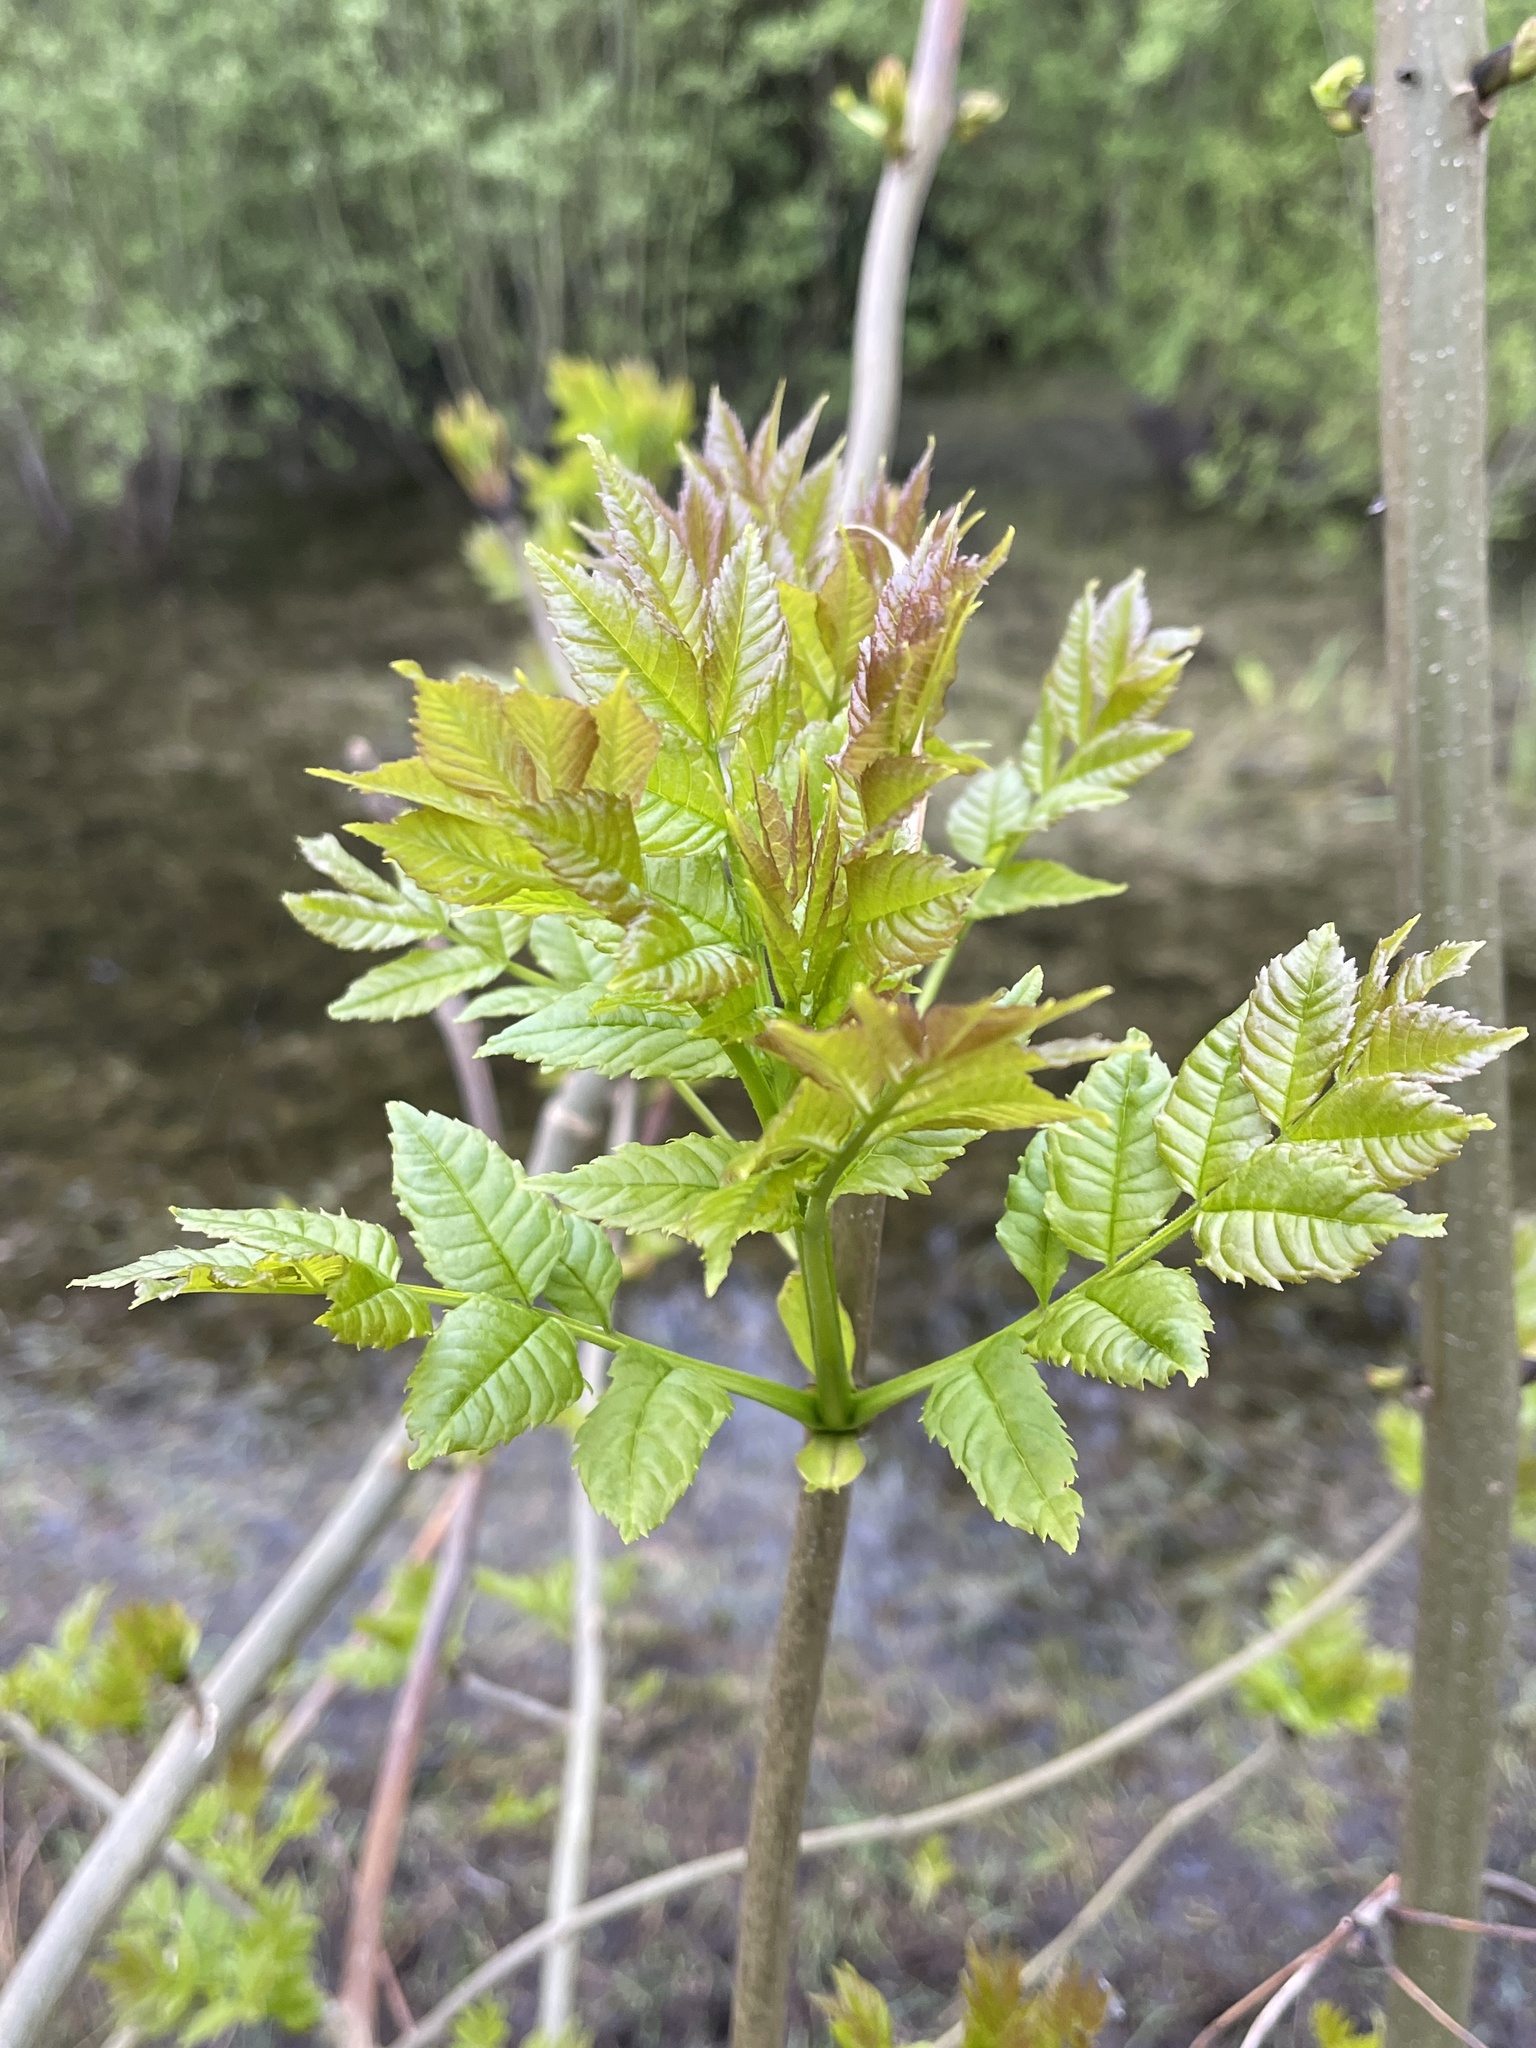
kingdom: Plantae
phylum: Tracheophyta
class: Magnoliopsida
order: Lamiales
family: Oleaceae
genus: Fraxinus
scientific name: Fraxinus excelsior
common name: European ash
